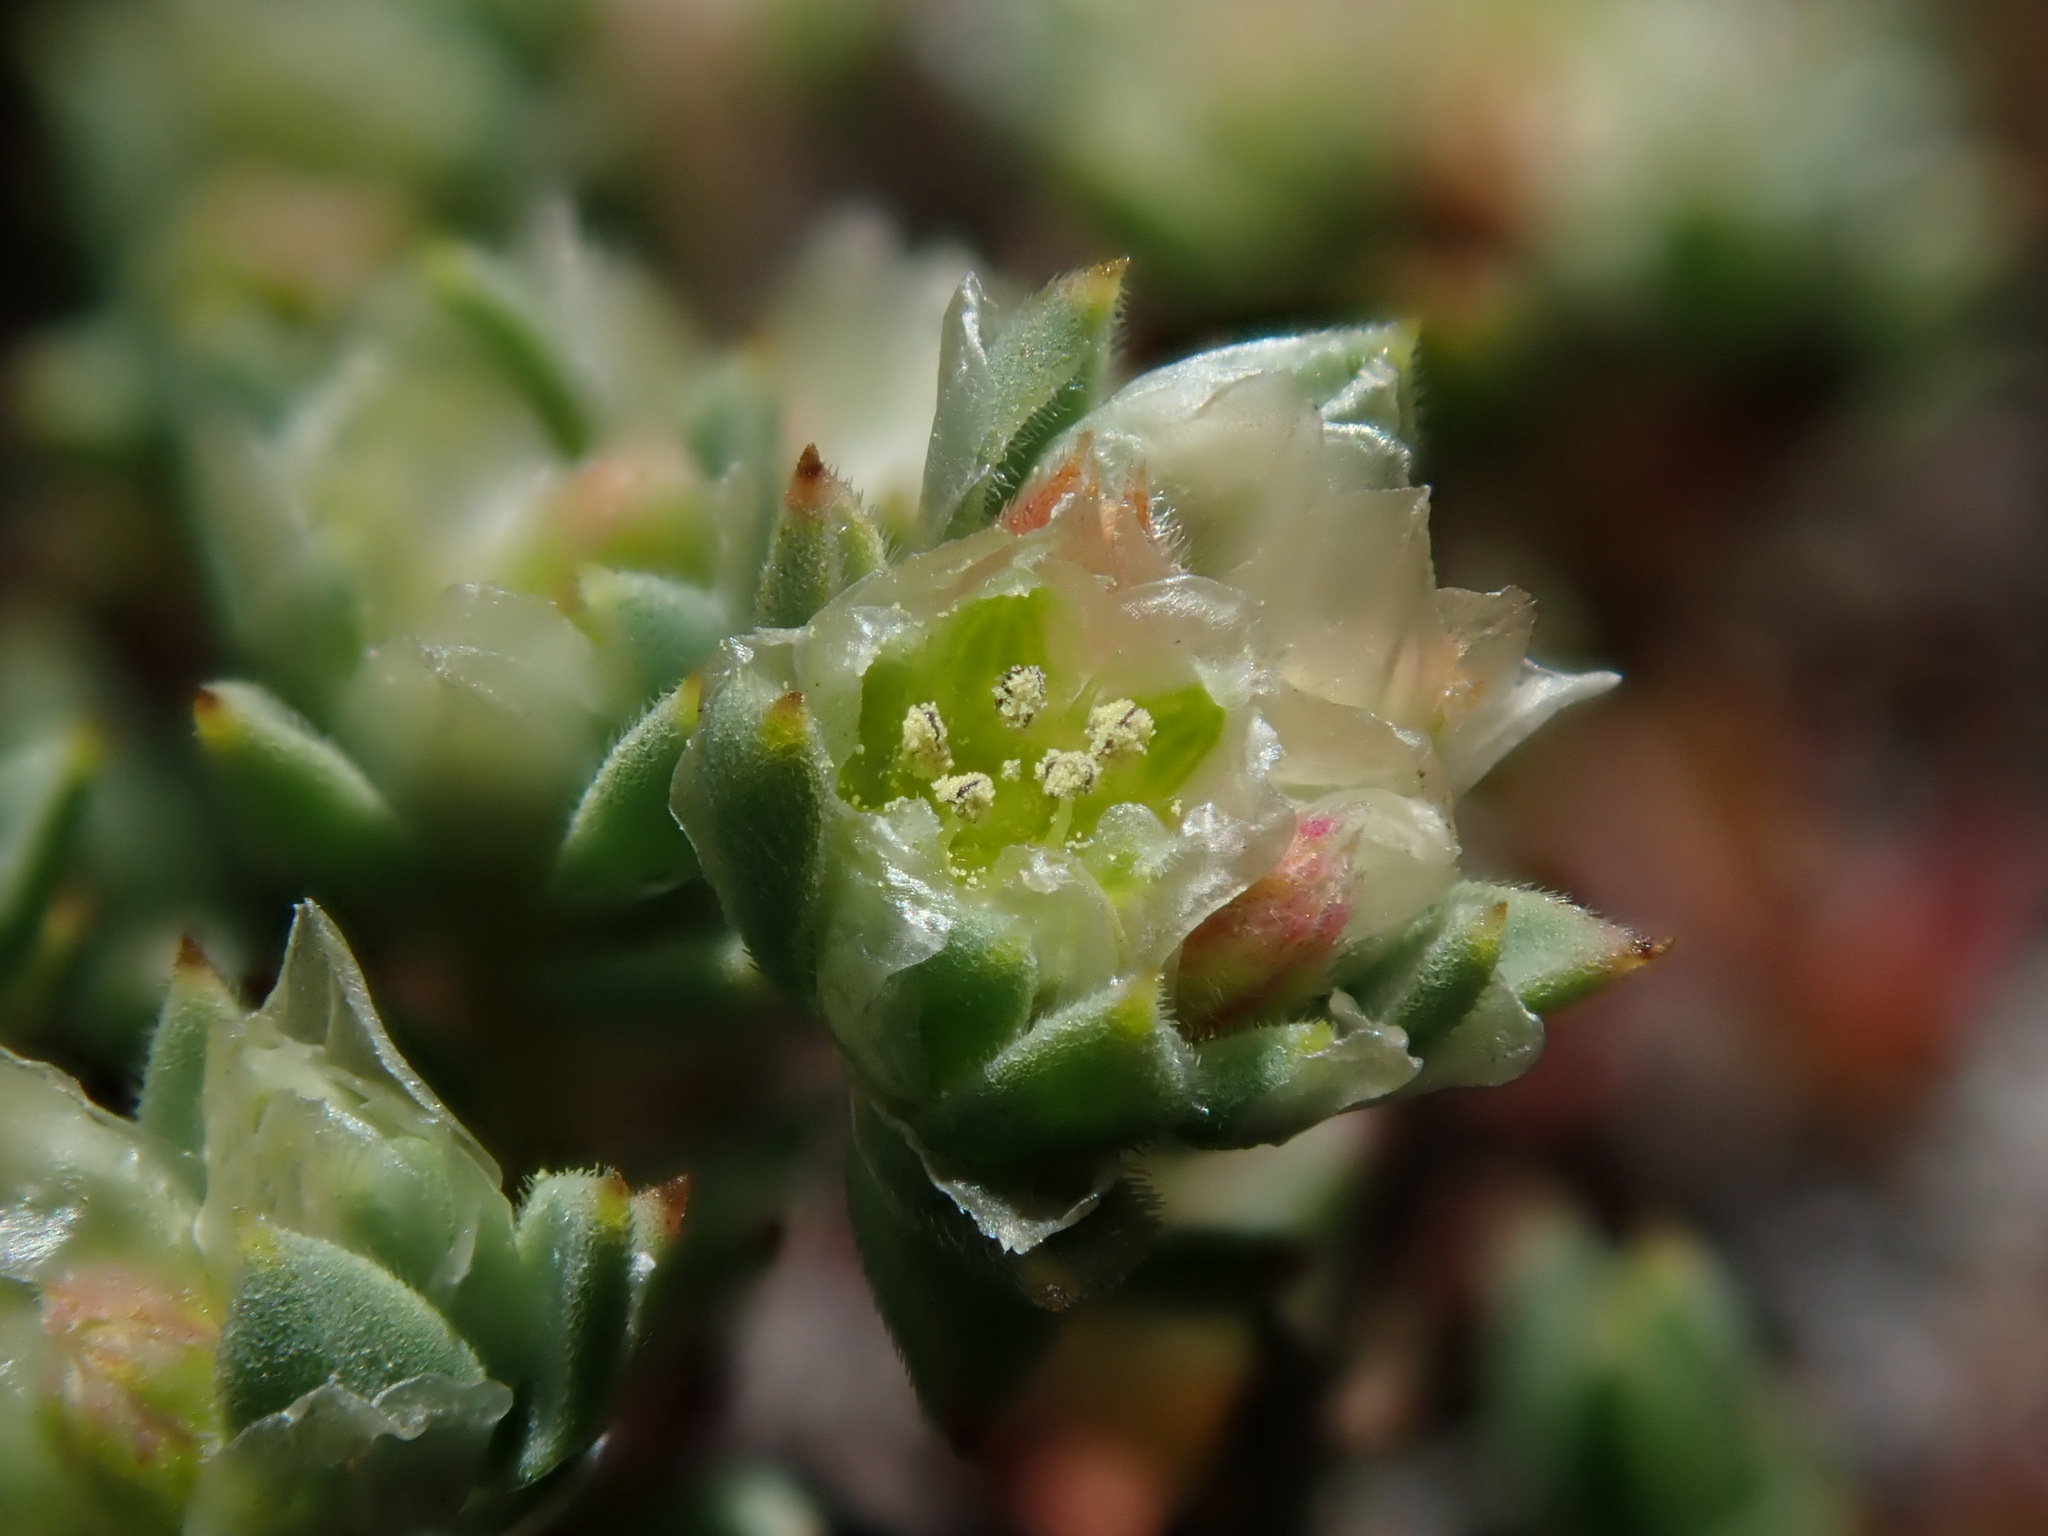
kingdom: Plantae
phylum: Tracheophyta
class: Magnoliopsida
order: Caryophyllales
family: Caryophyllaceae
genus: Paronychia
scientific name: Paronychia muschleri
